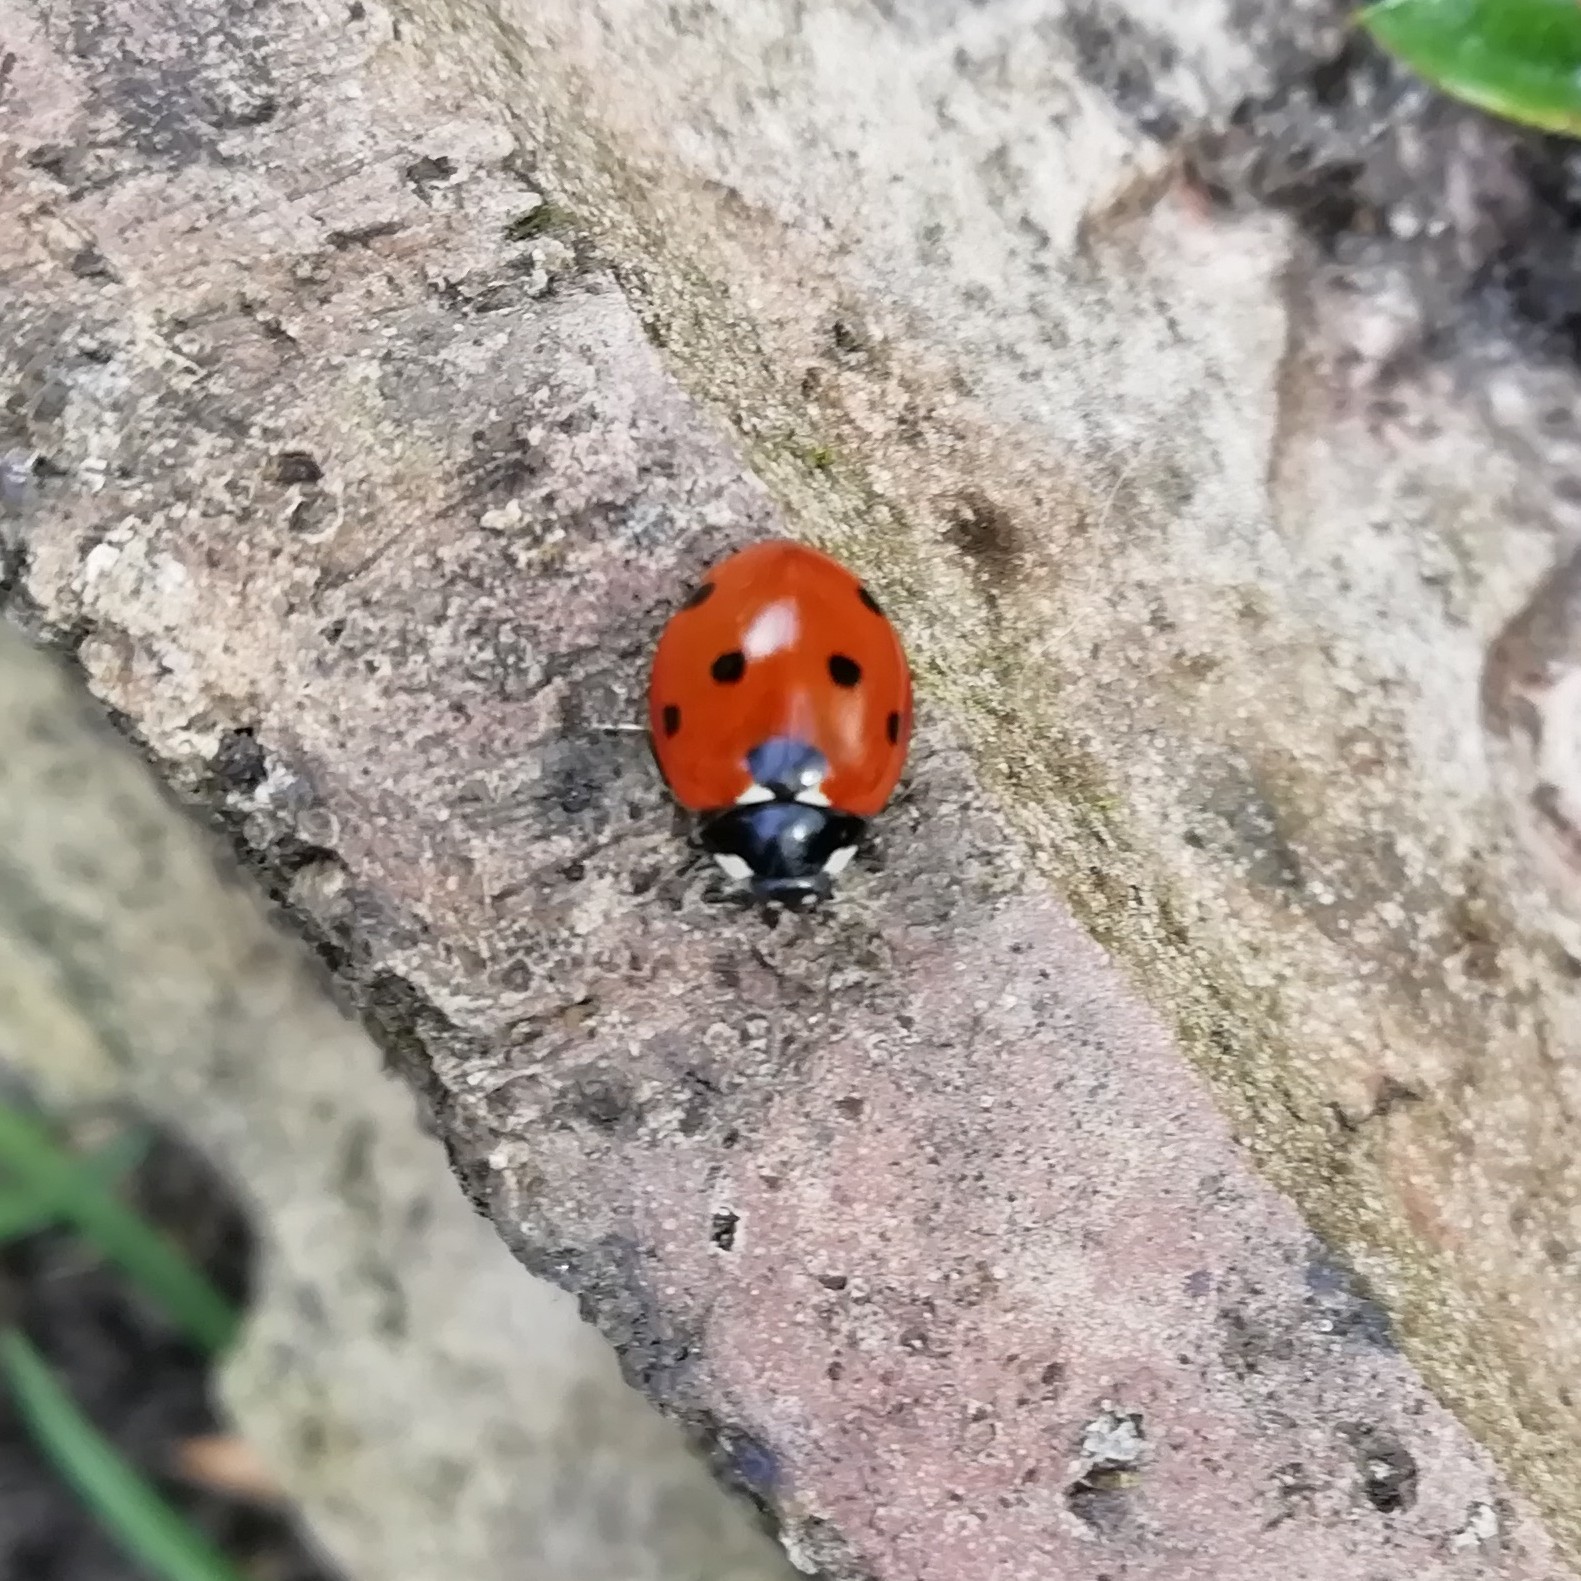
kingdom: Animalia
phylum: Arthropoda
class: Insecta
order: Coleoptera
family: Coccinellidae
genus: Coccinella
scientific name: Coccinella septempunctata
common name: Sevenspotted lady beetle
